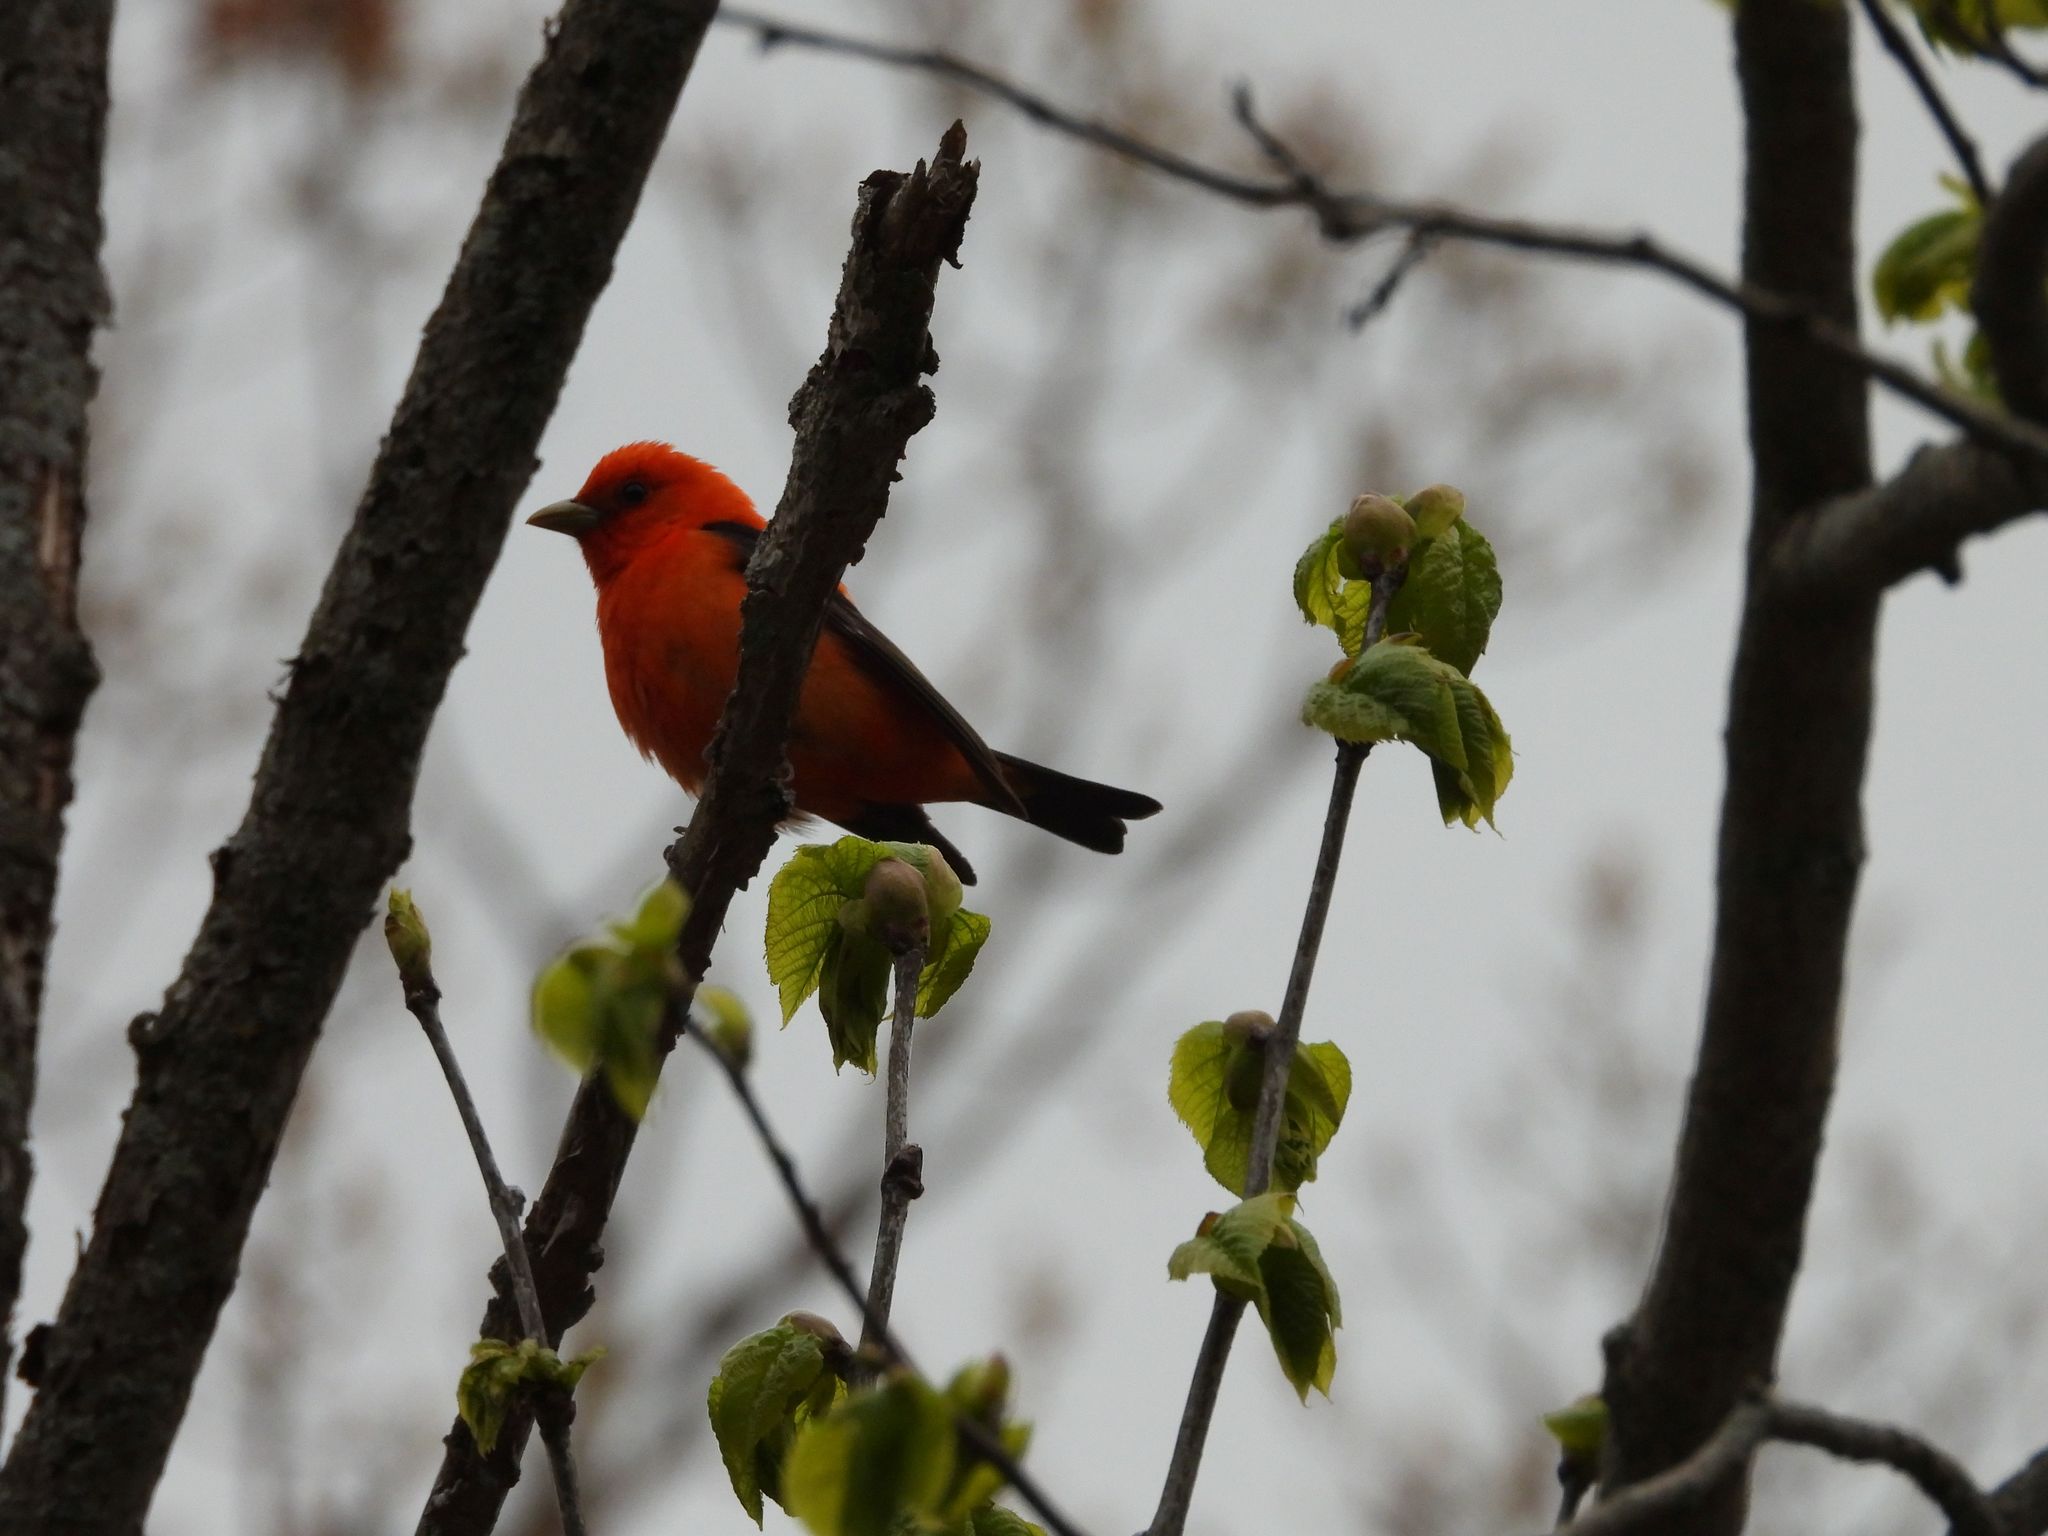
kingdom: Animalia
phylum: Chordata
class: Aves
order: Passeriformes
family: Cardinalidae
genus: Piranga
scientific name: Piranga olivacea
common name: Scarlet tanager
